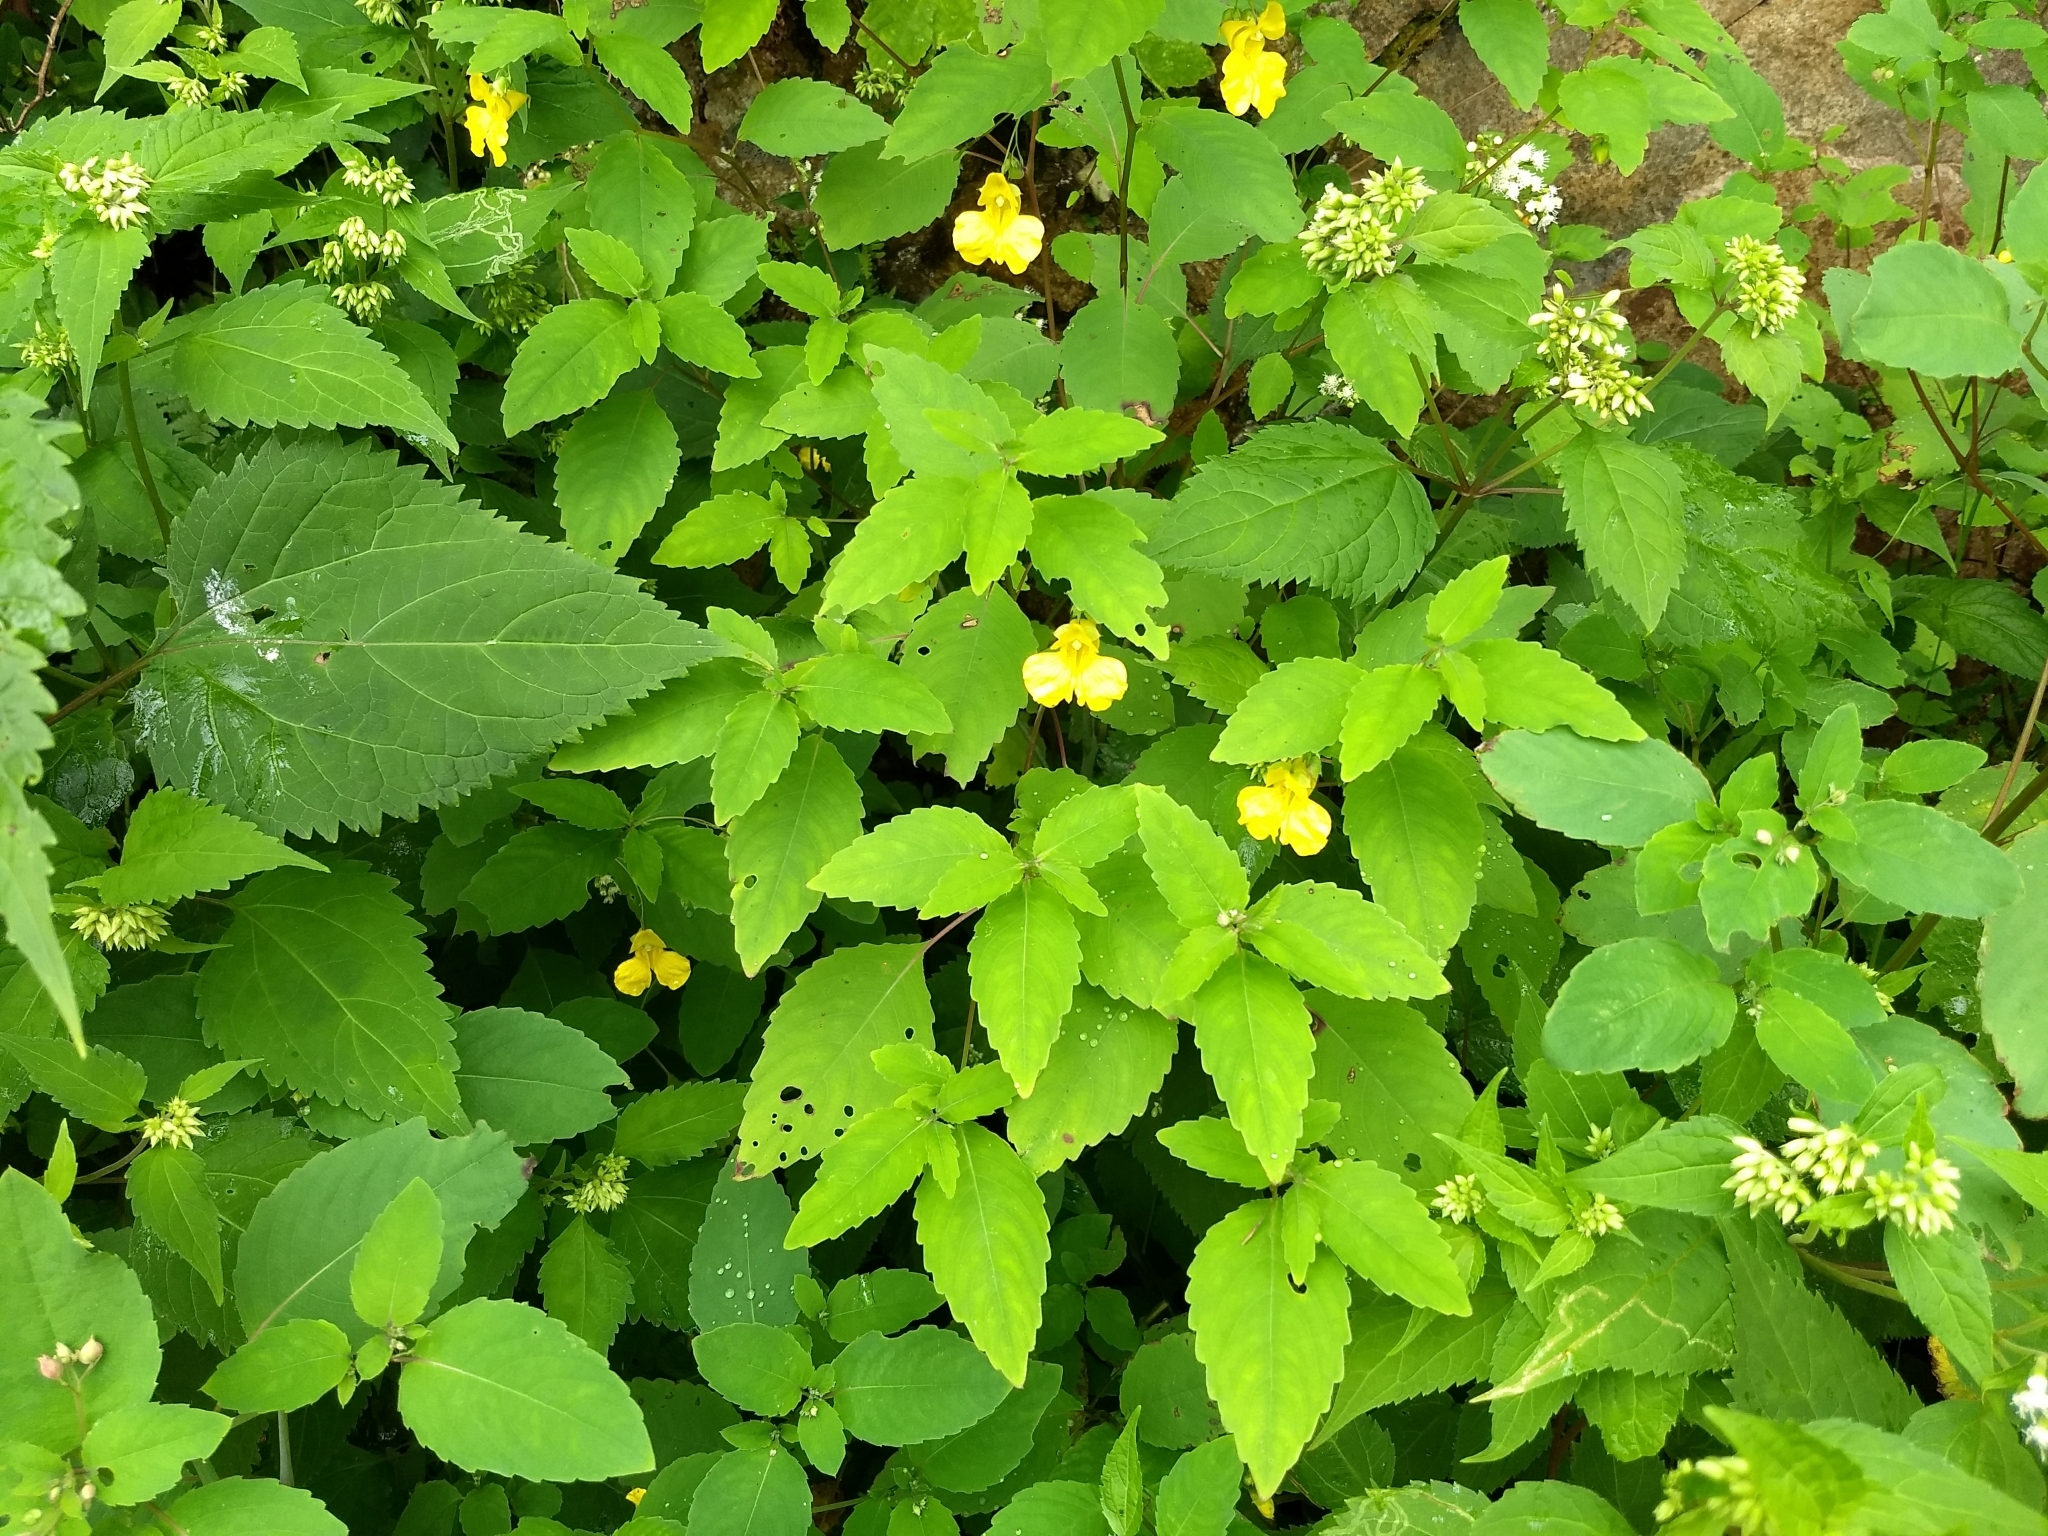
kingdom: Plantae
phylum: Tracheophyta
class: Magnoliopsida
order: Ericales
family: Balsaminaceae
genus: Impatiens
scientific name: Impatiens pallida
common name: Pale snapweed
